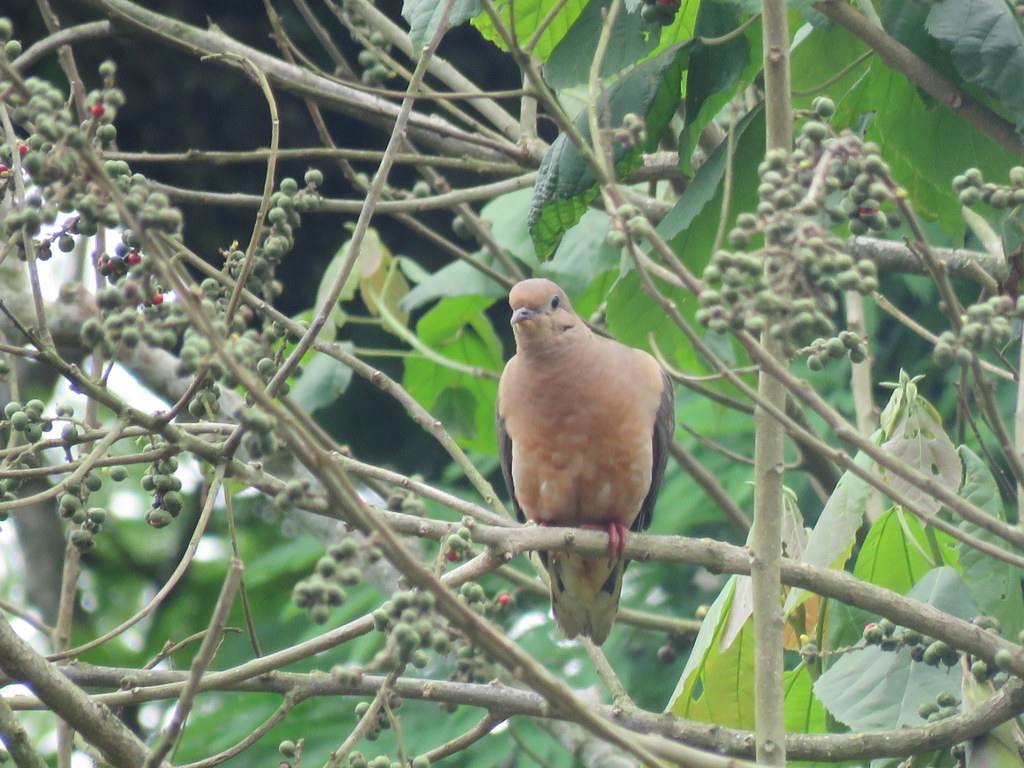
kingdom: Animalia
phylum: Chordata
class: Aves
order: Columbiformes
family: Columbidae
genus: Zenaida
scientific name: Zenaida auriculata
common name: Eared dove
